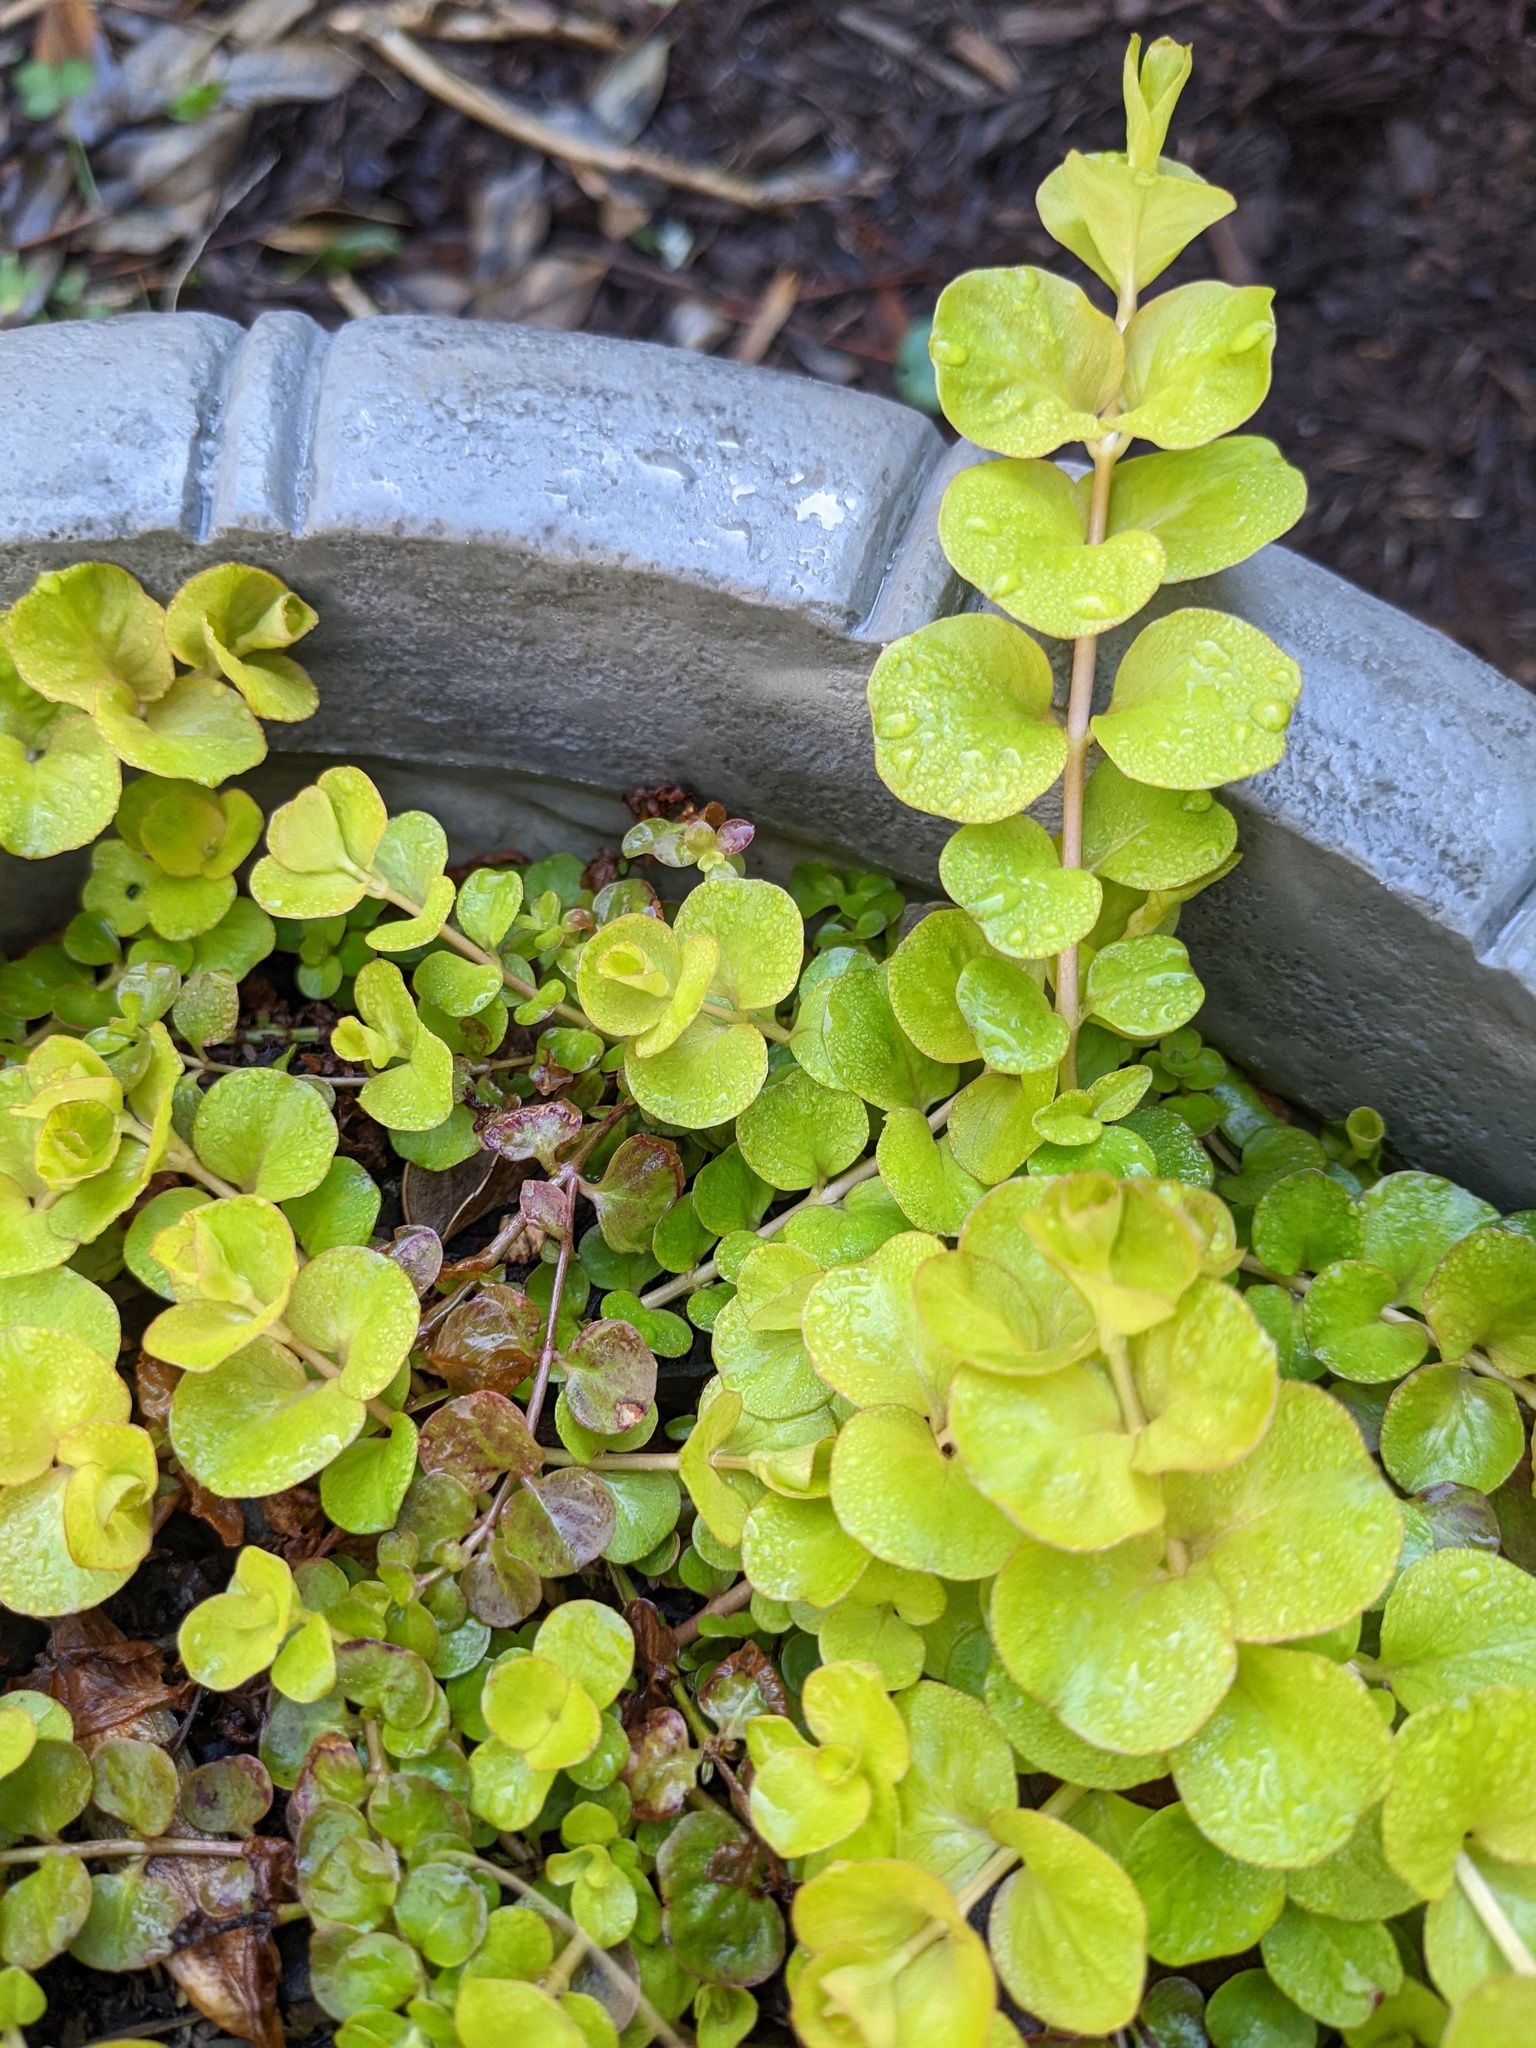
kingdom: Plantae
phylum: Tracheophyta
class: Magnoliopsida
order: Ericales
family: Primulaceae
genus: Lysimachia
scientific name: Lysimachia nummularia
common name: Moneywort
